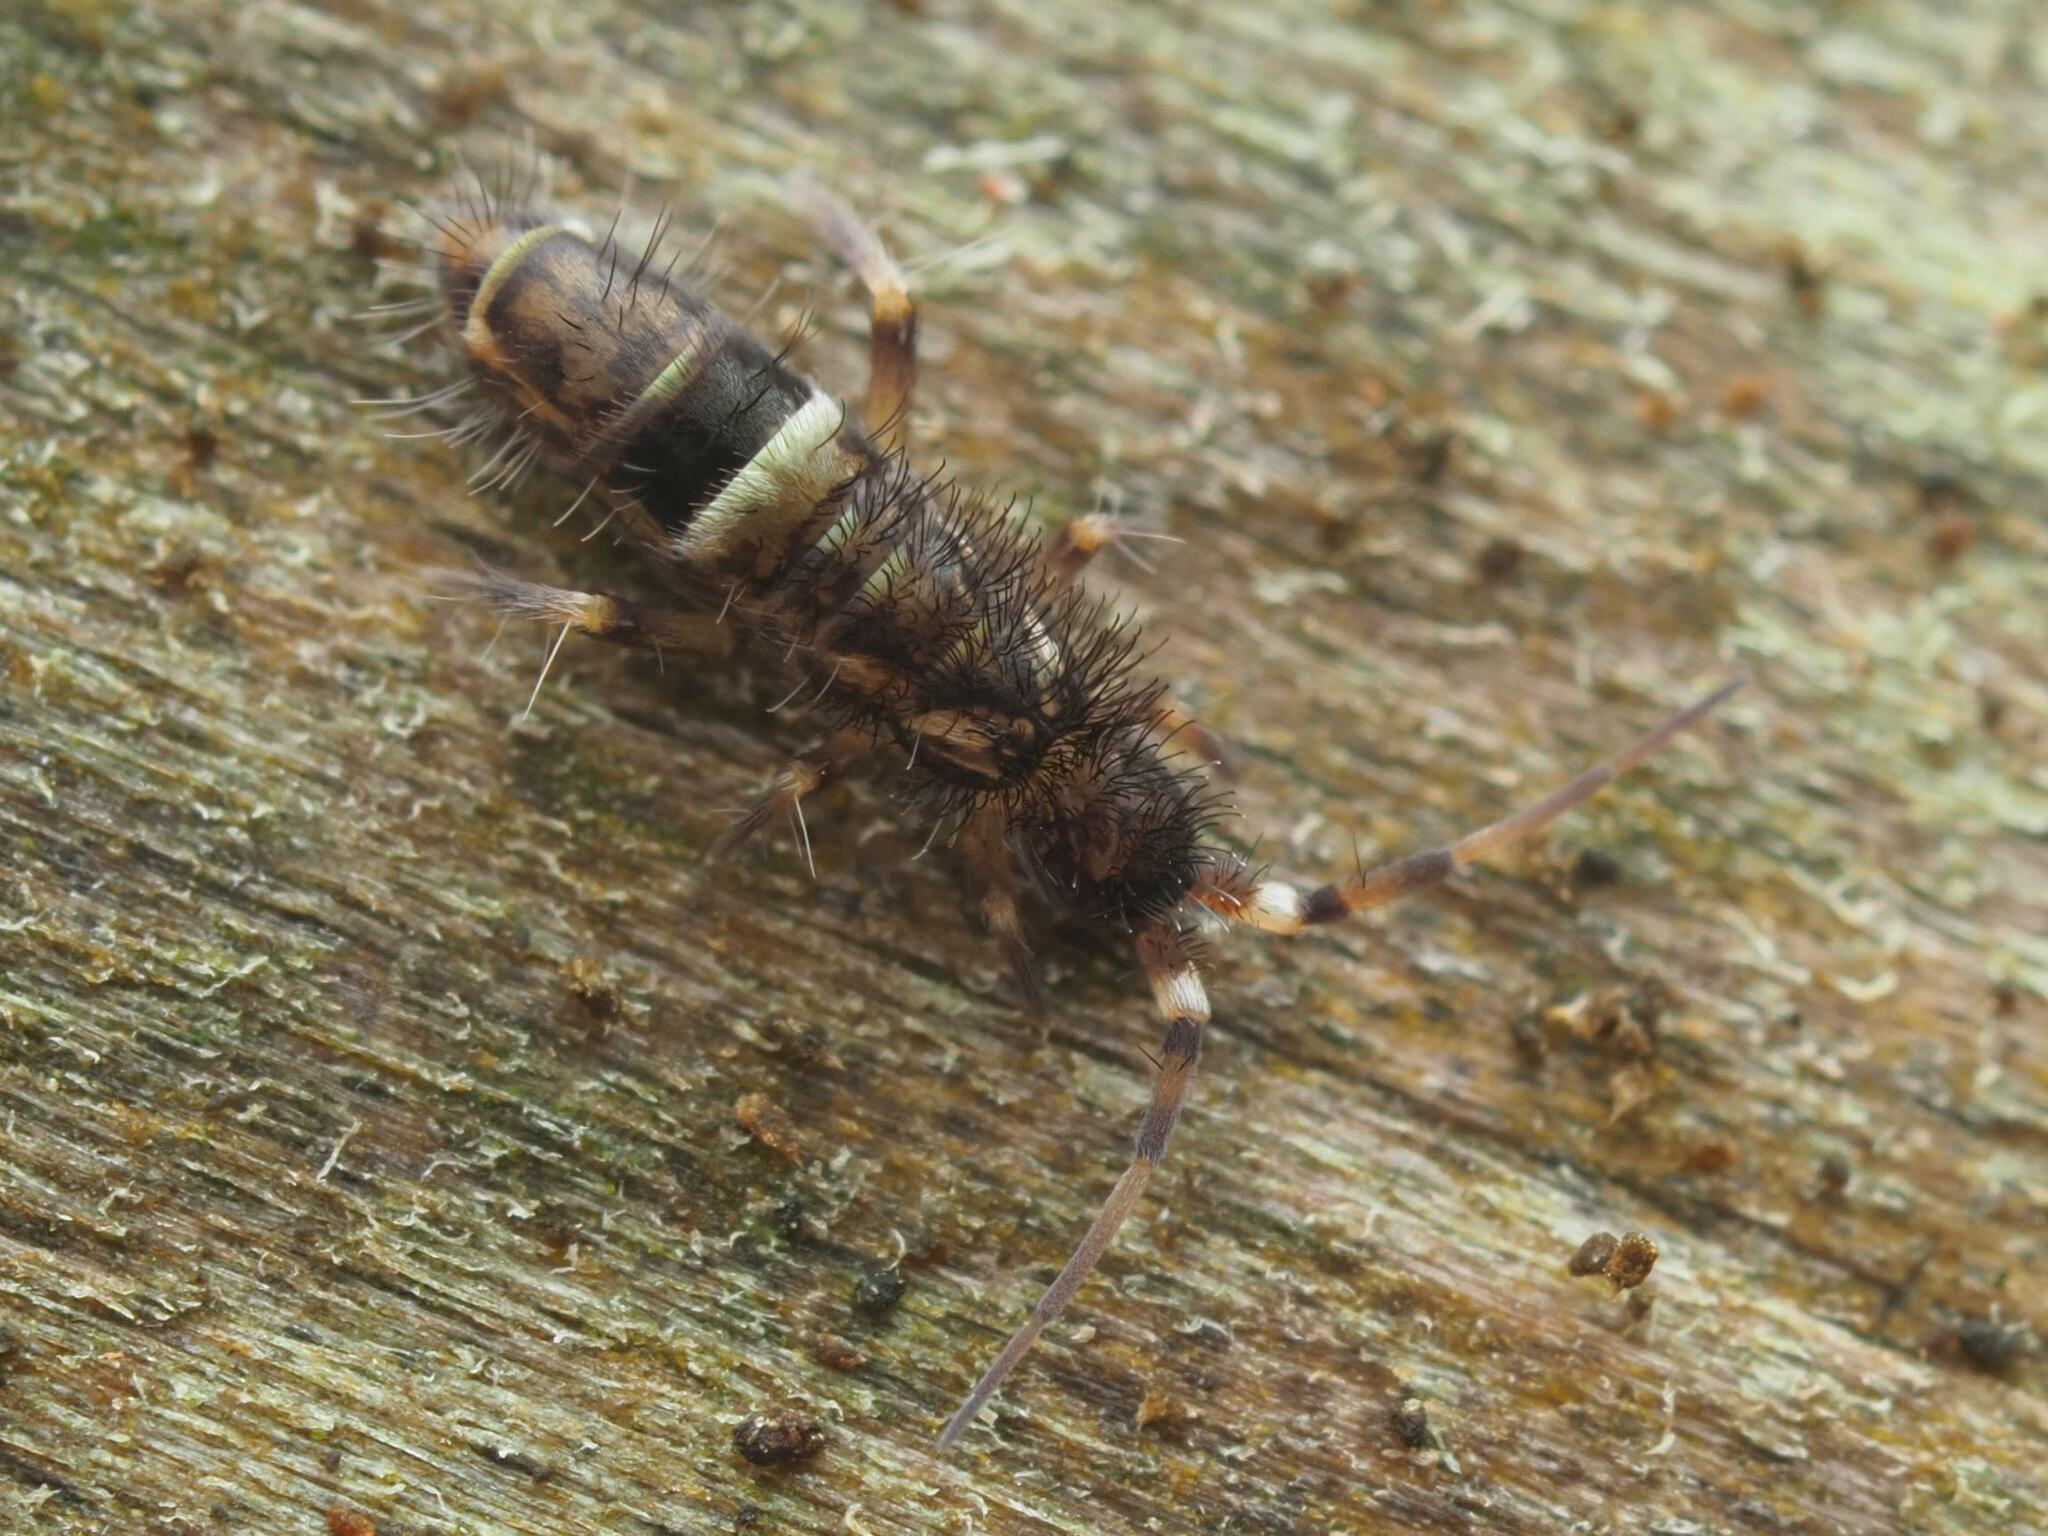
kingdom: Animalia
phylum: Arthropoda
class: Collembola
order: Entomobryomorpha
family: Orchesellidae
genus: Orchesella
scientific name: Orchesella cincta
